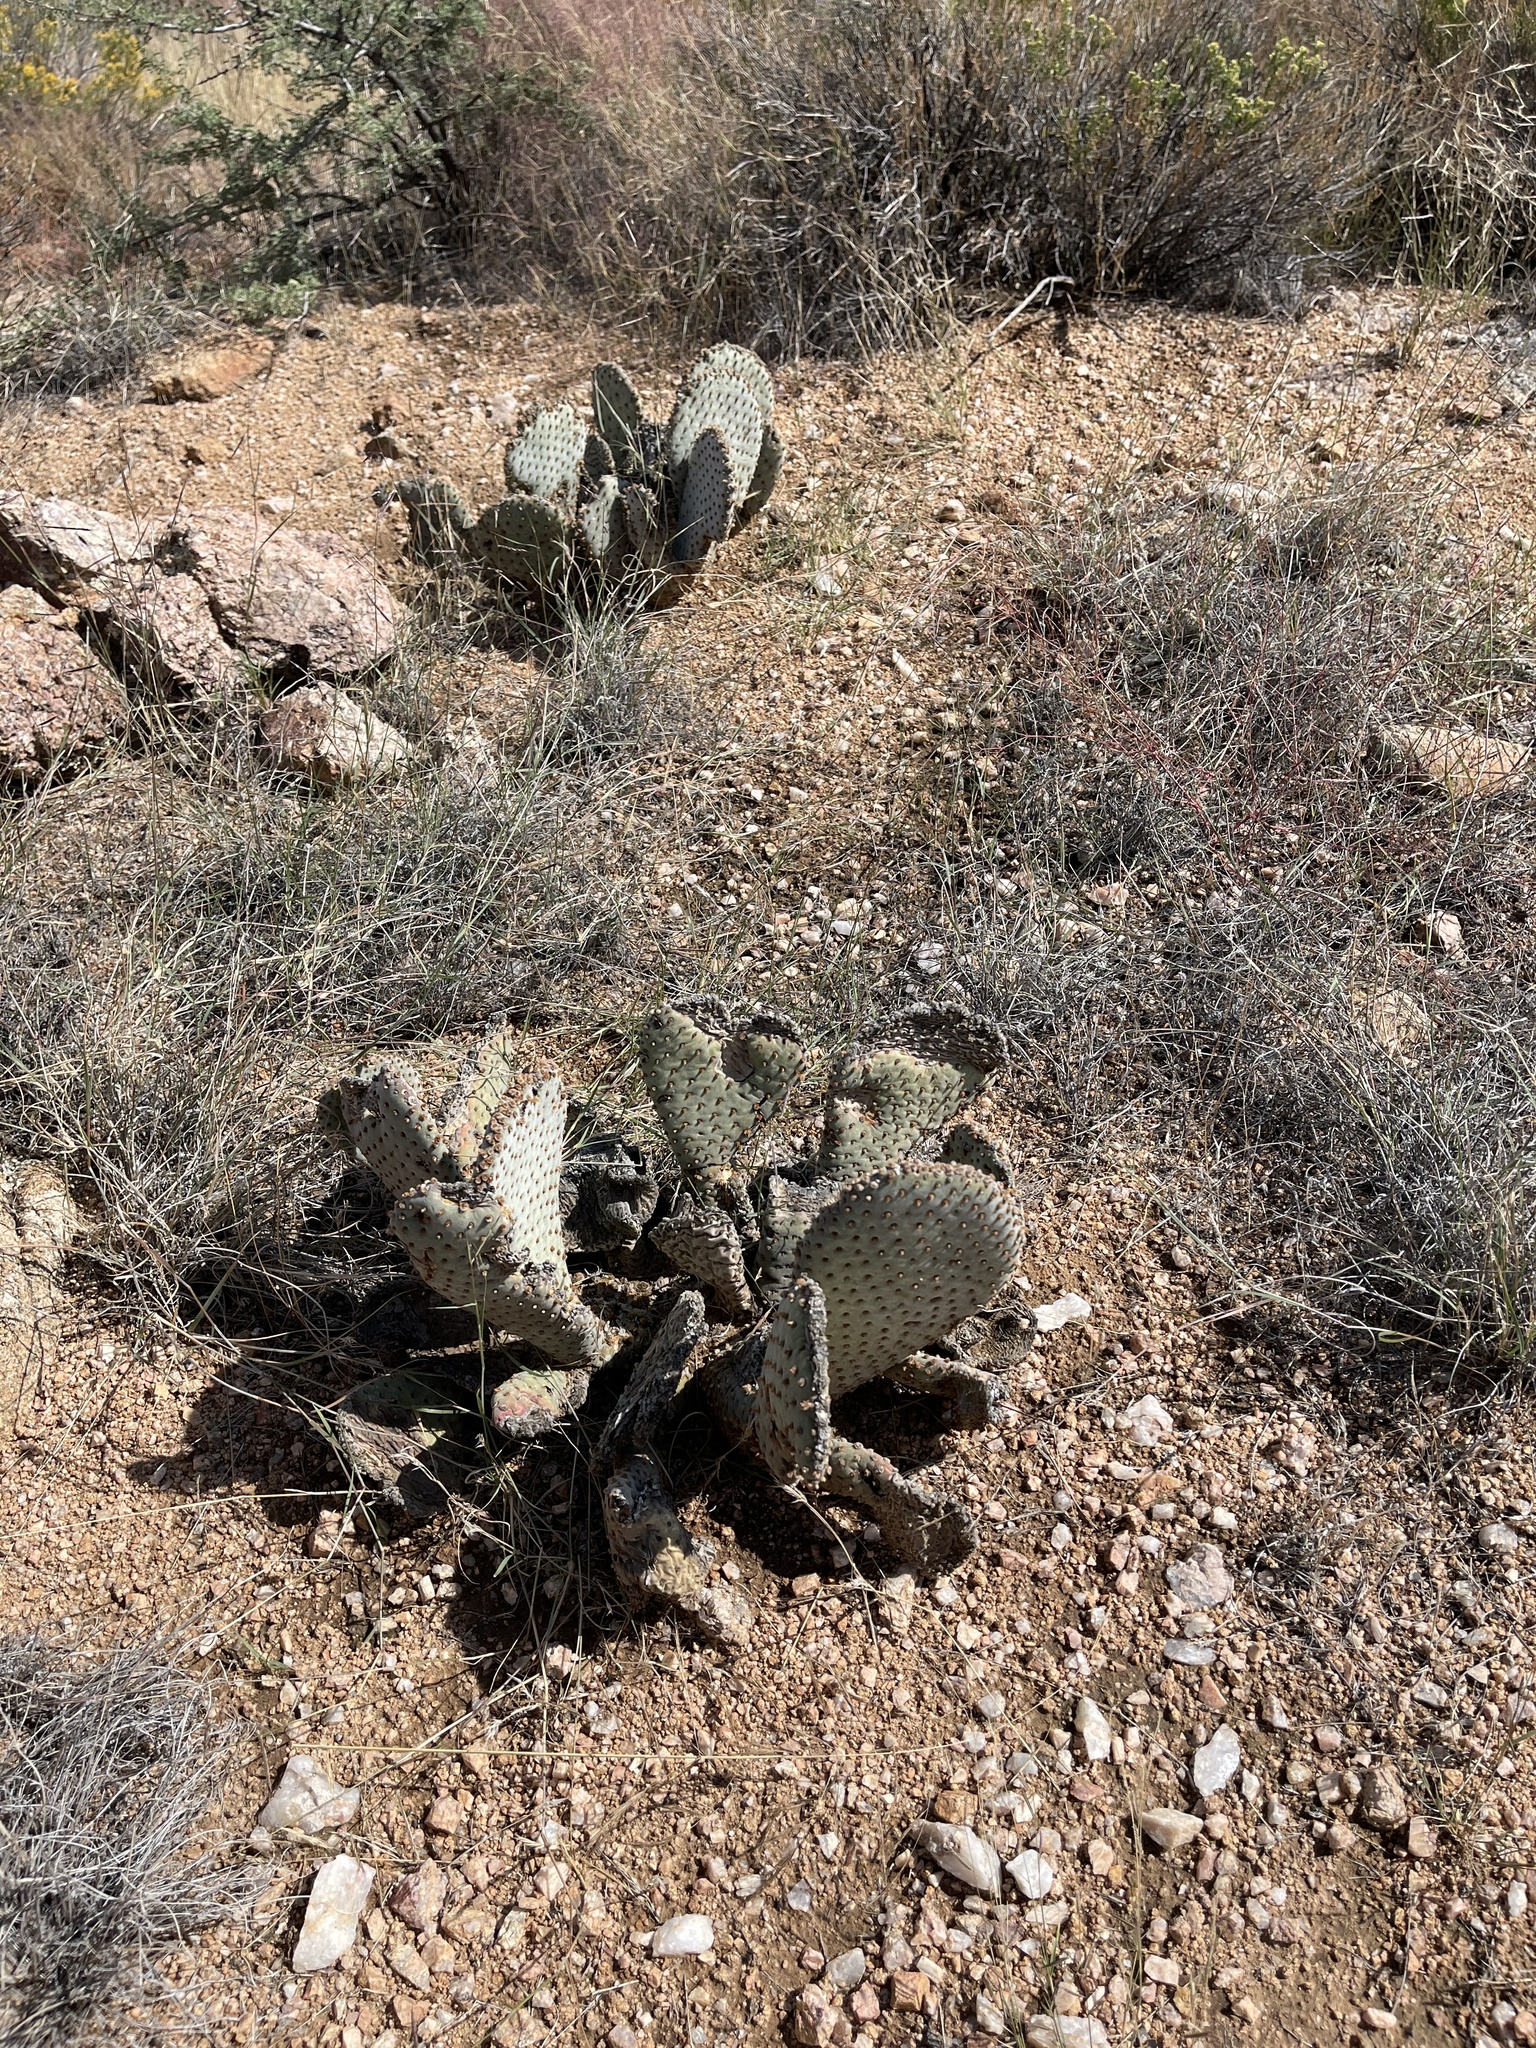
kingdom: Plantae
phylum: Tracheophyta
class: Magnoliopsida
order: Caryophyllales
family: Cactaceae
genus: Opuntia
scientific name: Opuntia basilaris
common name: Beavertail prickly-pear
